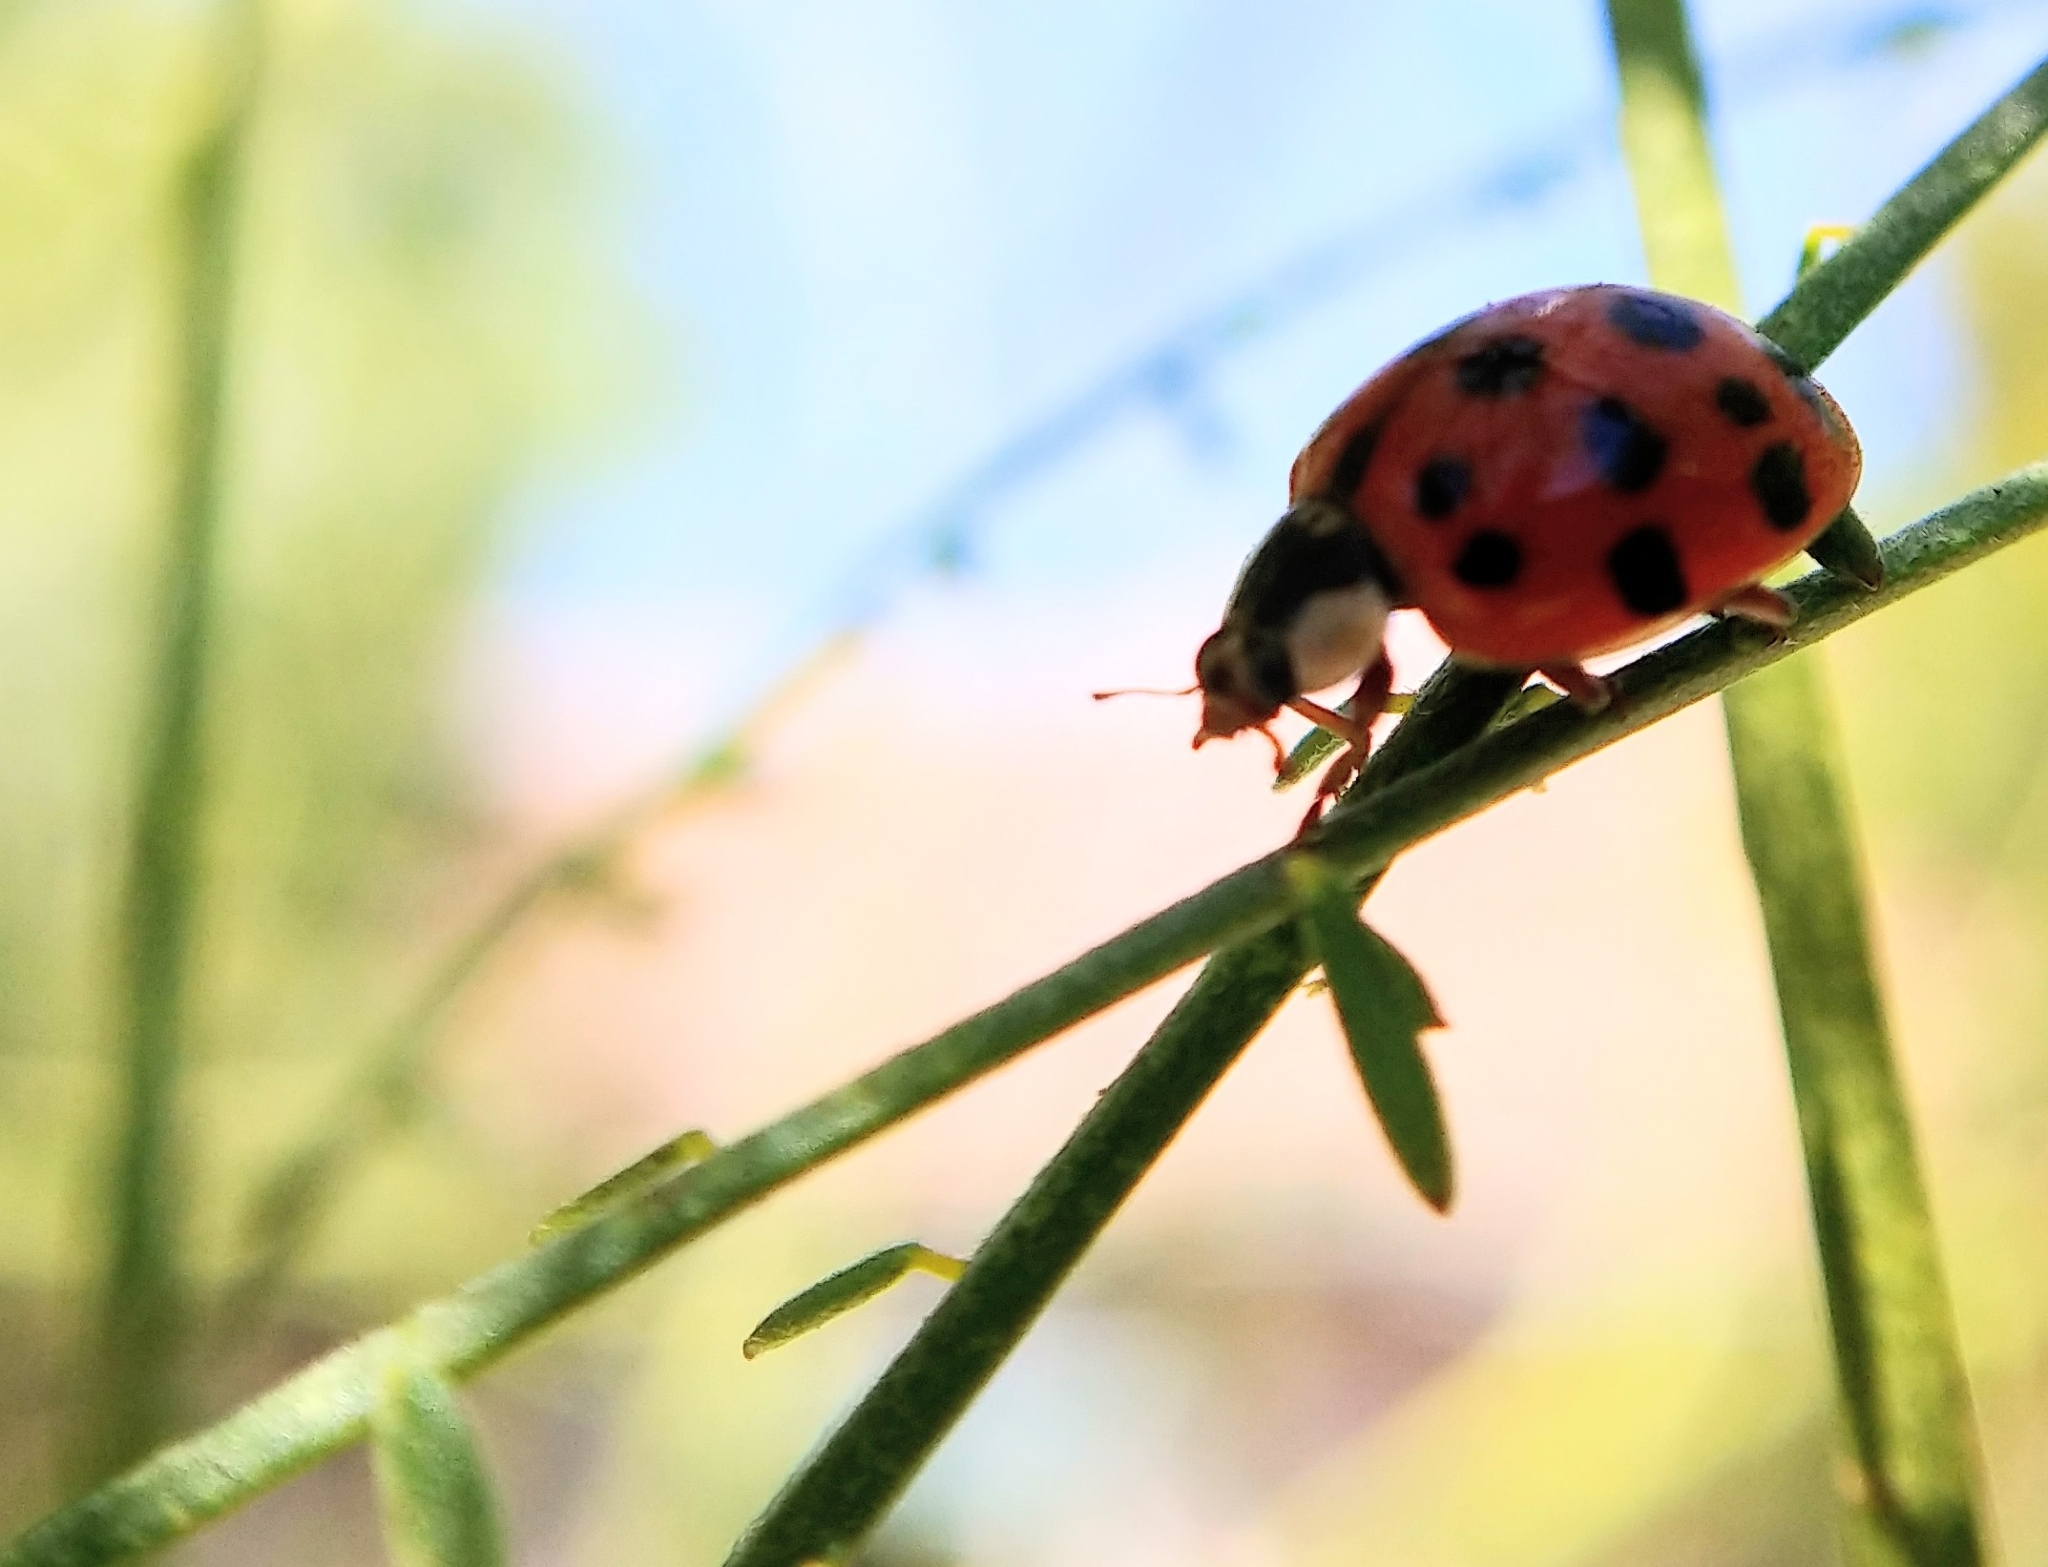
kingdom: Animalia
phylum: Arthropoda
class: Insecta
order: Coleoptera
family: Coccinellidae
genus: Harmonia
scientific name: Harmonia axyridis
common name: Harlequin ladybird
